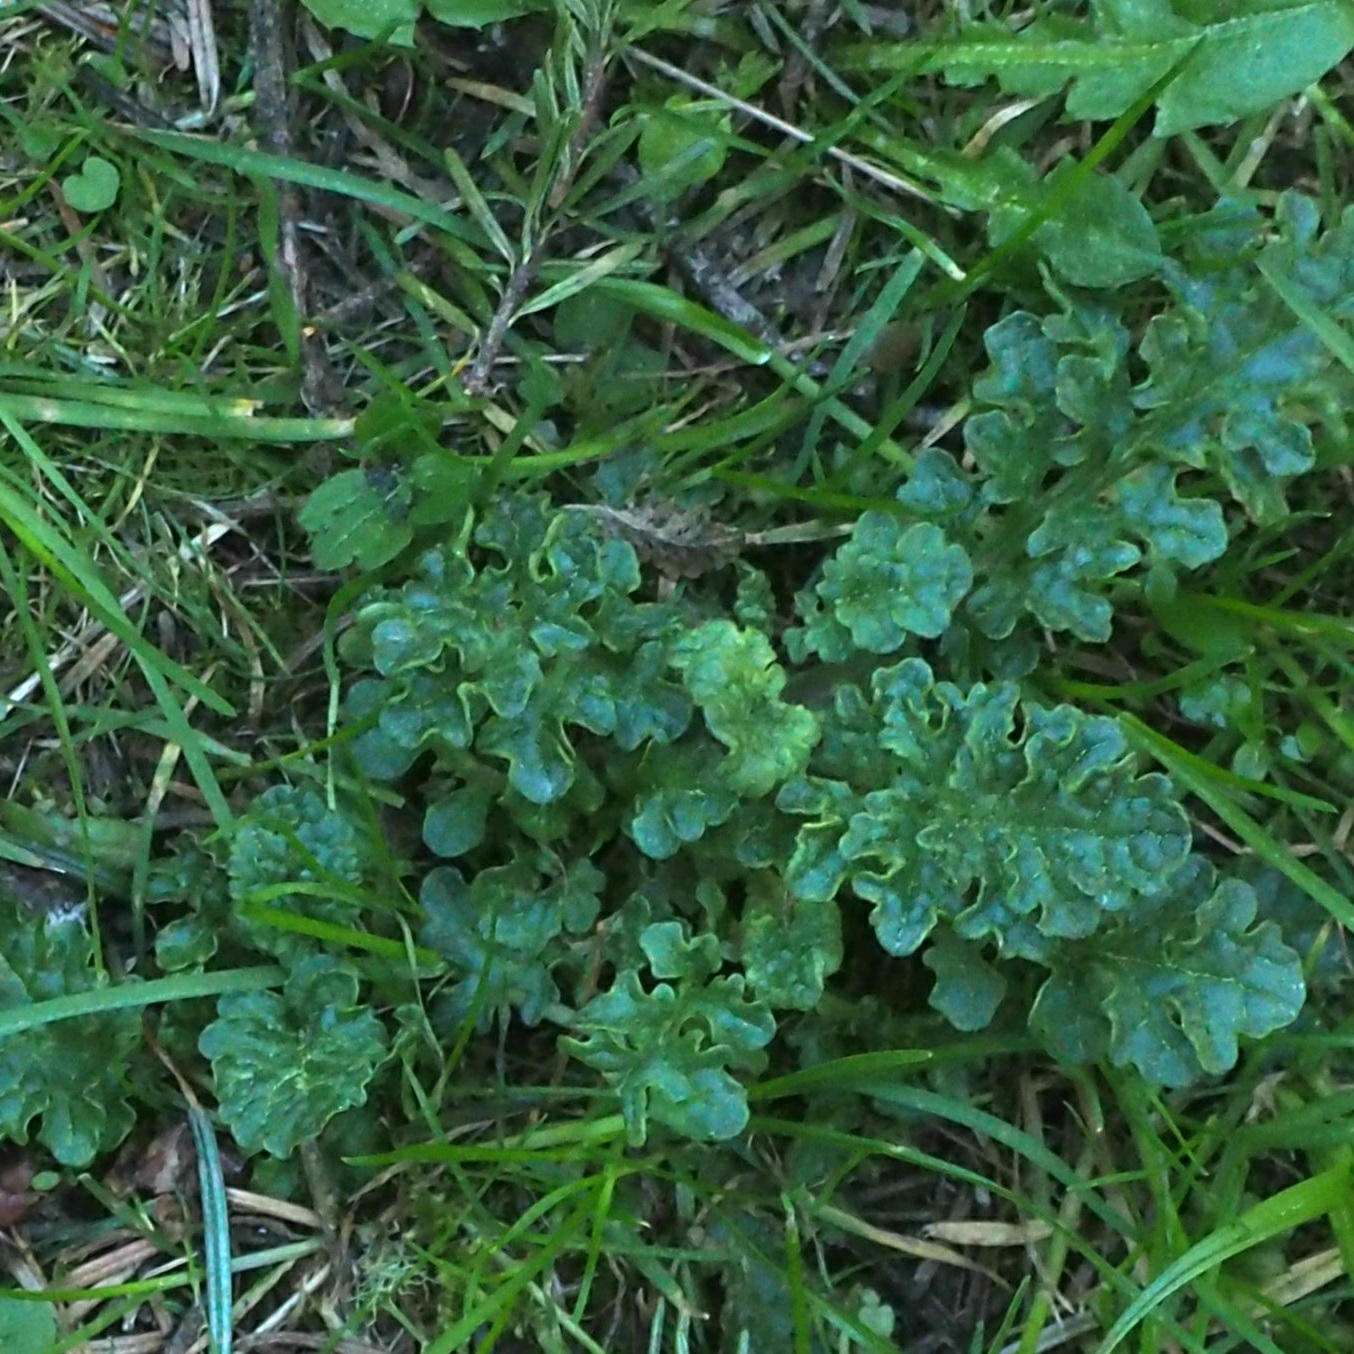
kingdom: Plantae
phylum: Tracheophyta
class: Magnoliopsida
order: Asterales
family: Asteraceae
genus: Jacobaea
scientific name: Jacobaea vulgaris
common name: Stinking willie
